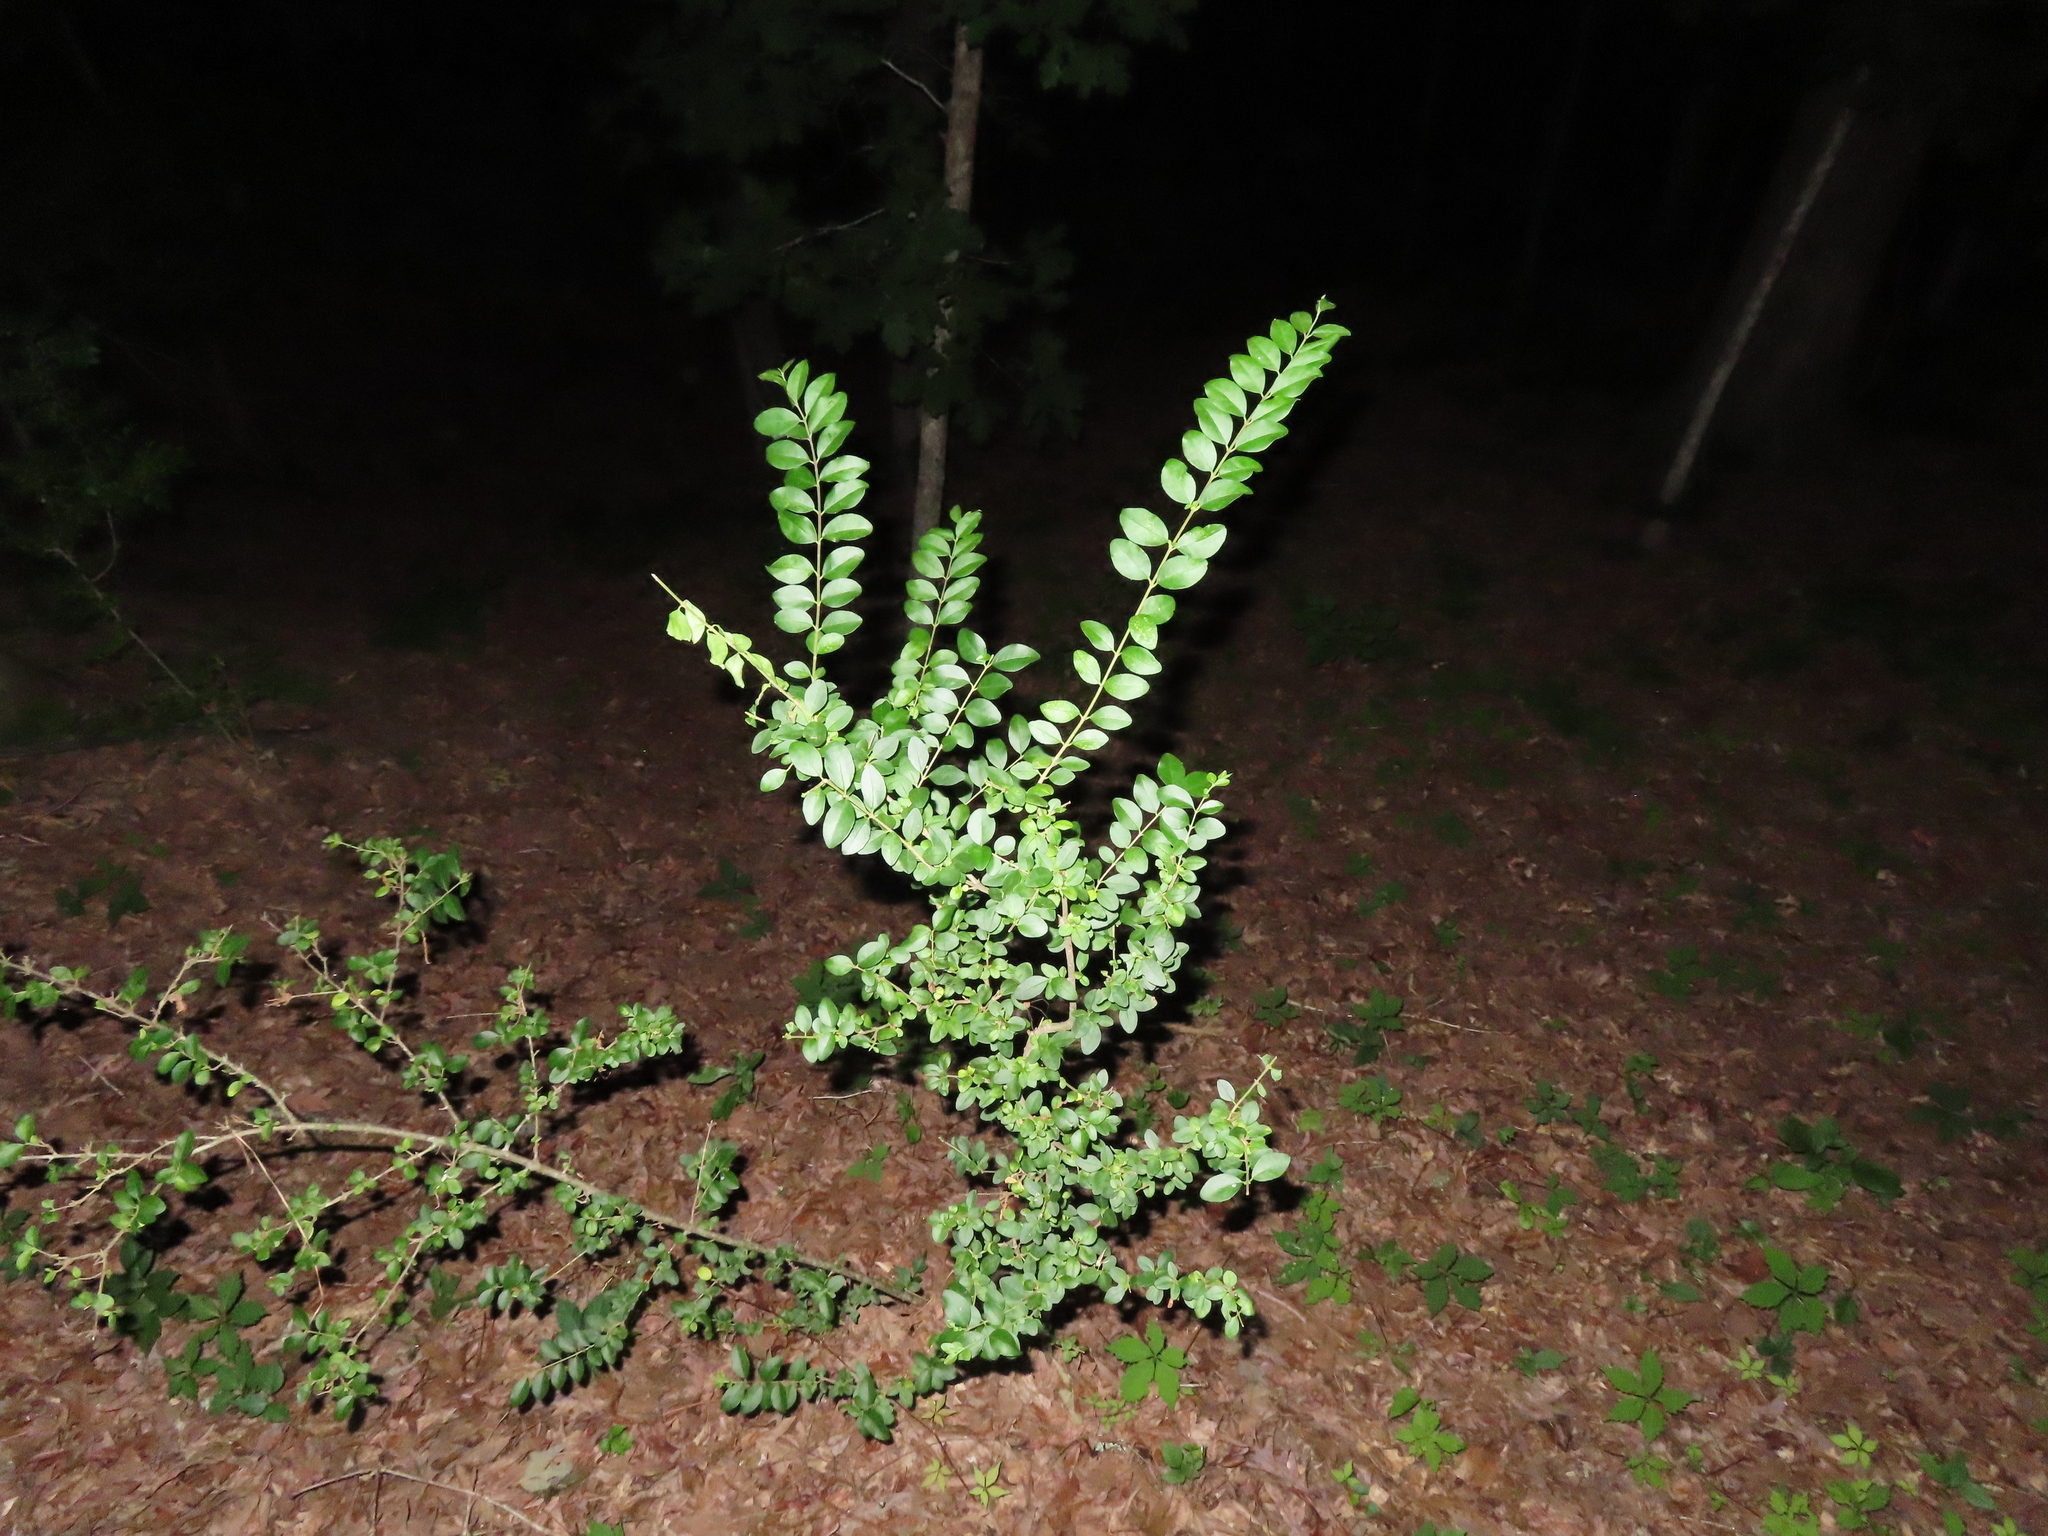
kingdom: Plantae
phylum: Tracheophyta
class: Magnoliopsida
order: Lamiales
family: Oleaceae
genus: Ligustrum
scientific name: Ligustrum sinense
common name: Chinese privet
